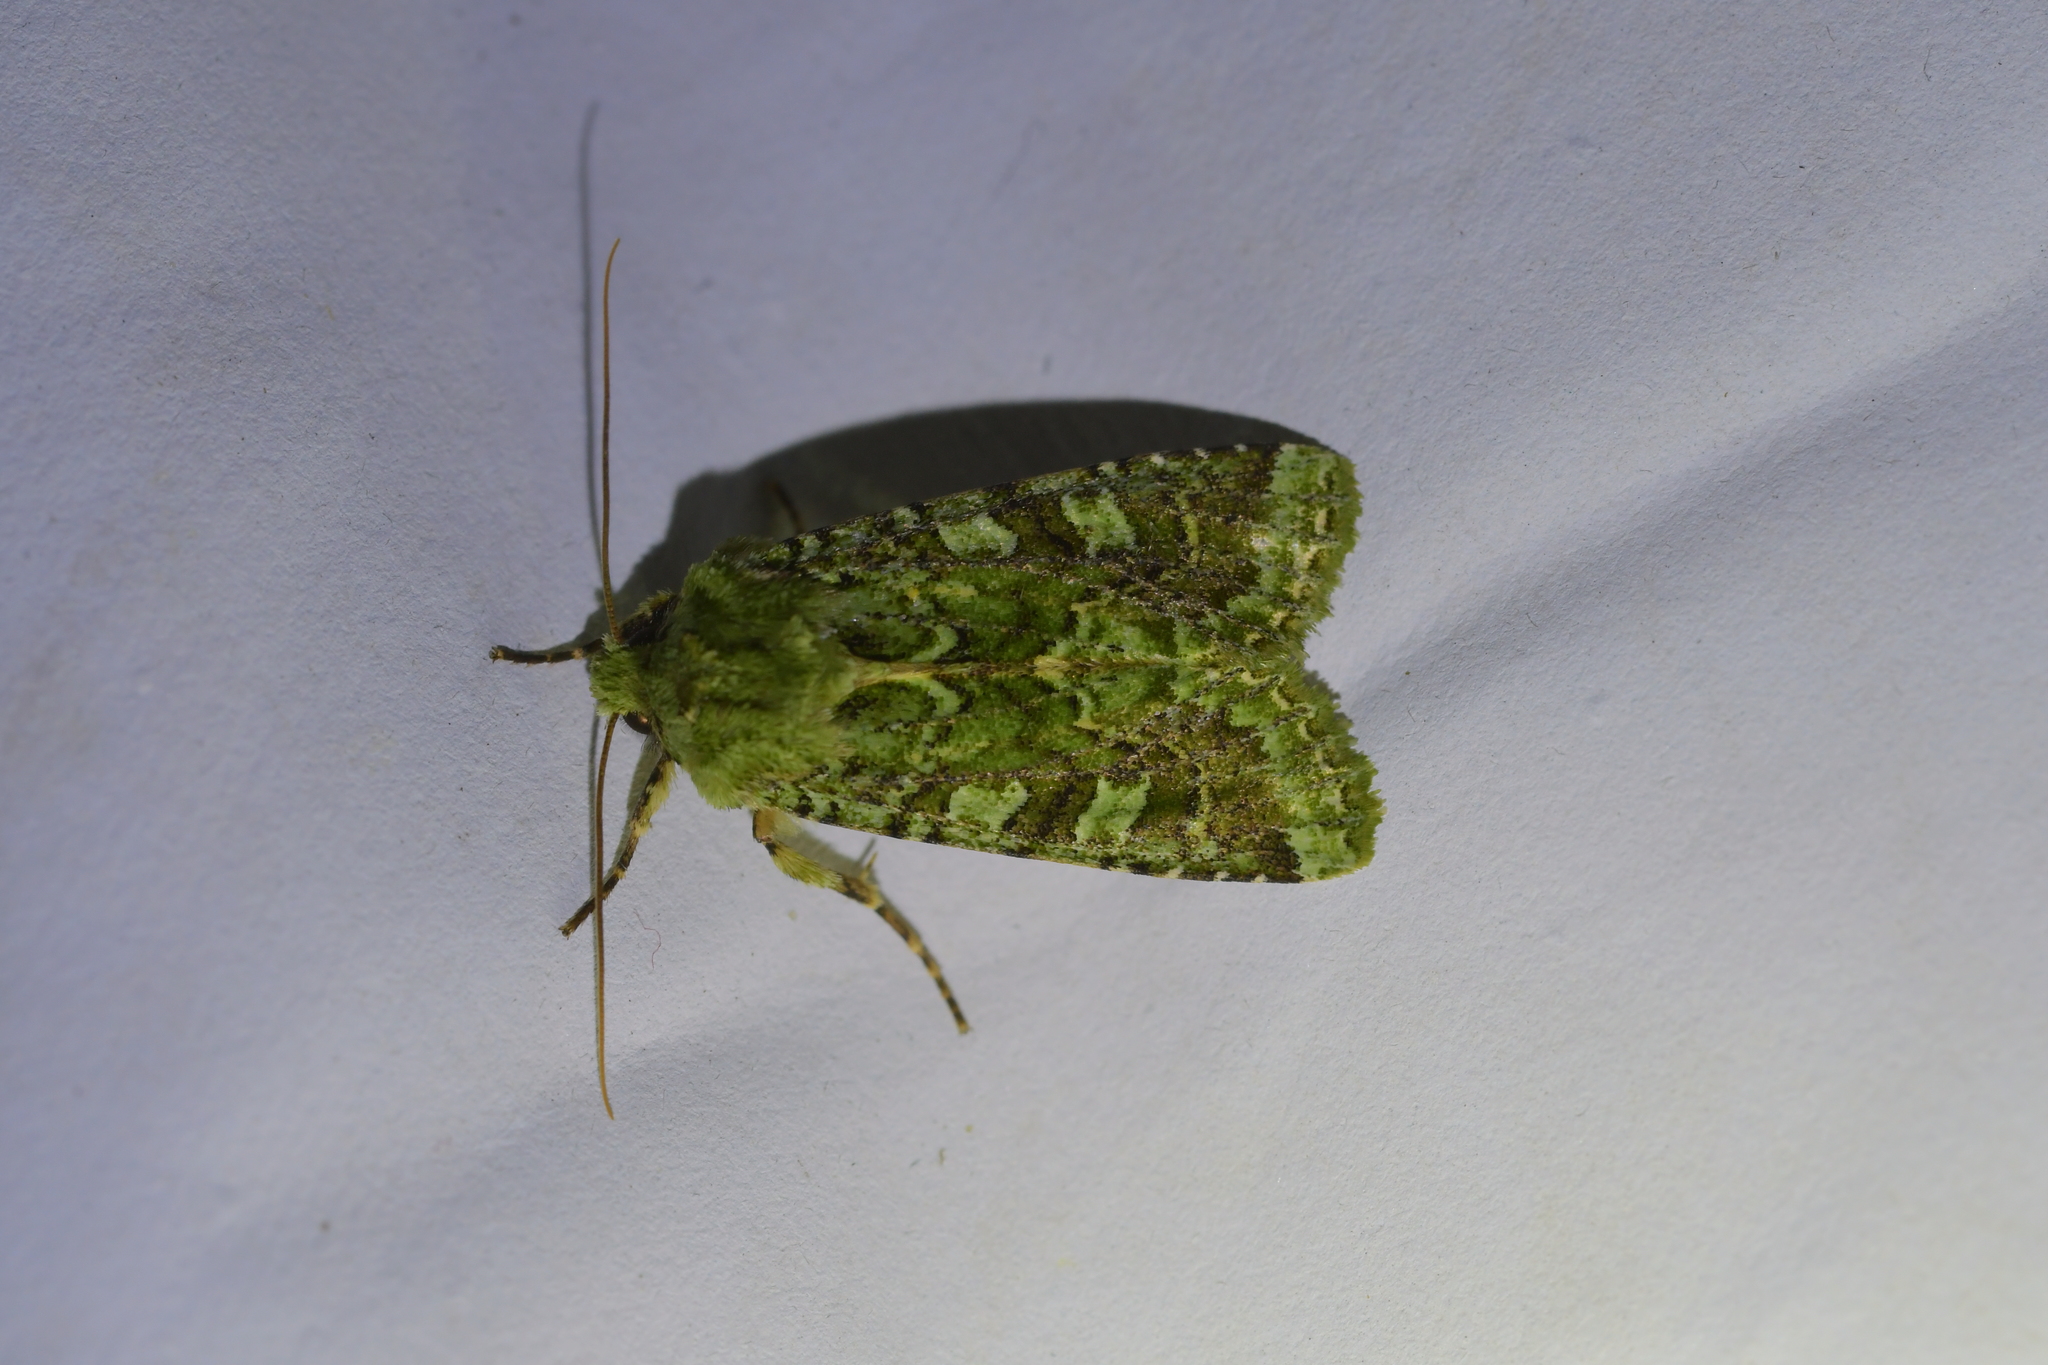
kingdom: Animalia
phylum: Arthropoda
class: Insecta
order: Lepidoptera
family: Noctuidae
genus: Feredayia
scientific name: Feredayia grammosa
